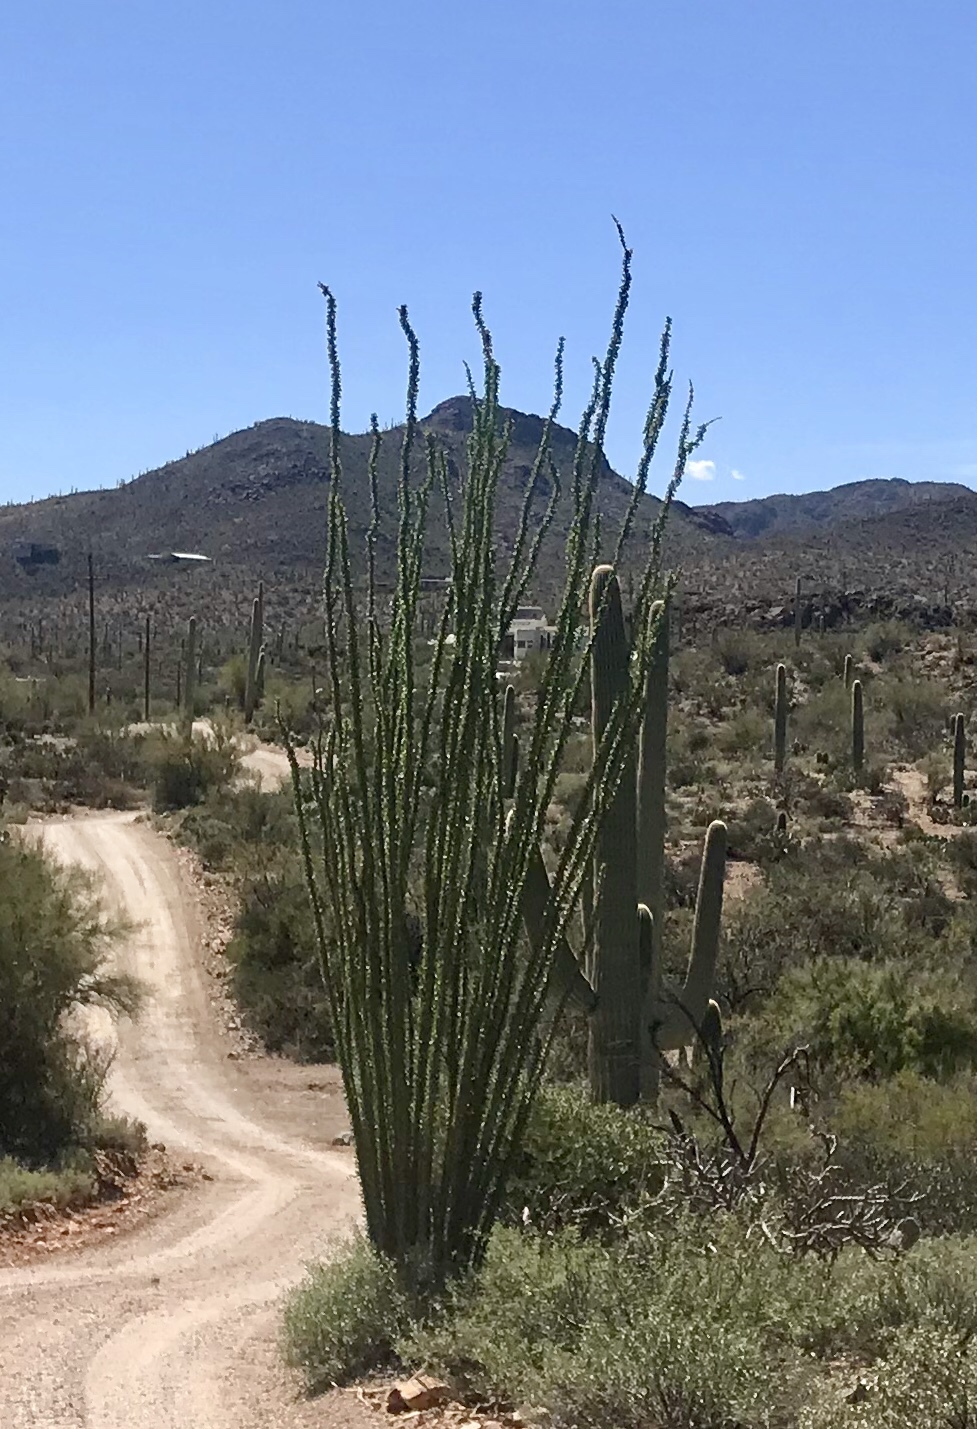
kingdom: Plantae
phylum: Tracheophyta
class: Magnoliopsida
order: Ericales
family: Fouquieriaceae
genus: Fouquieria
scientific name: Fouquieria splendens
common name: Vine-cactus
